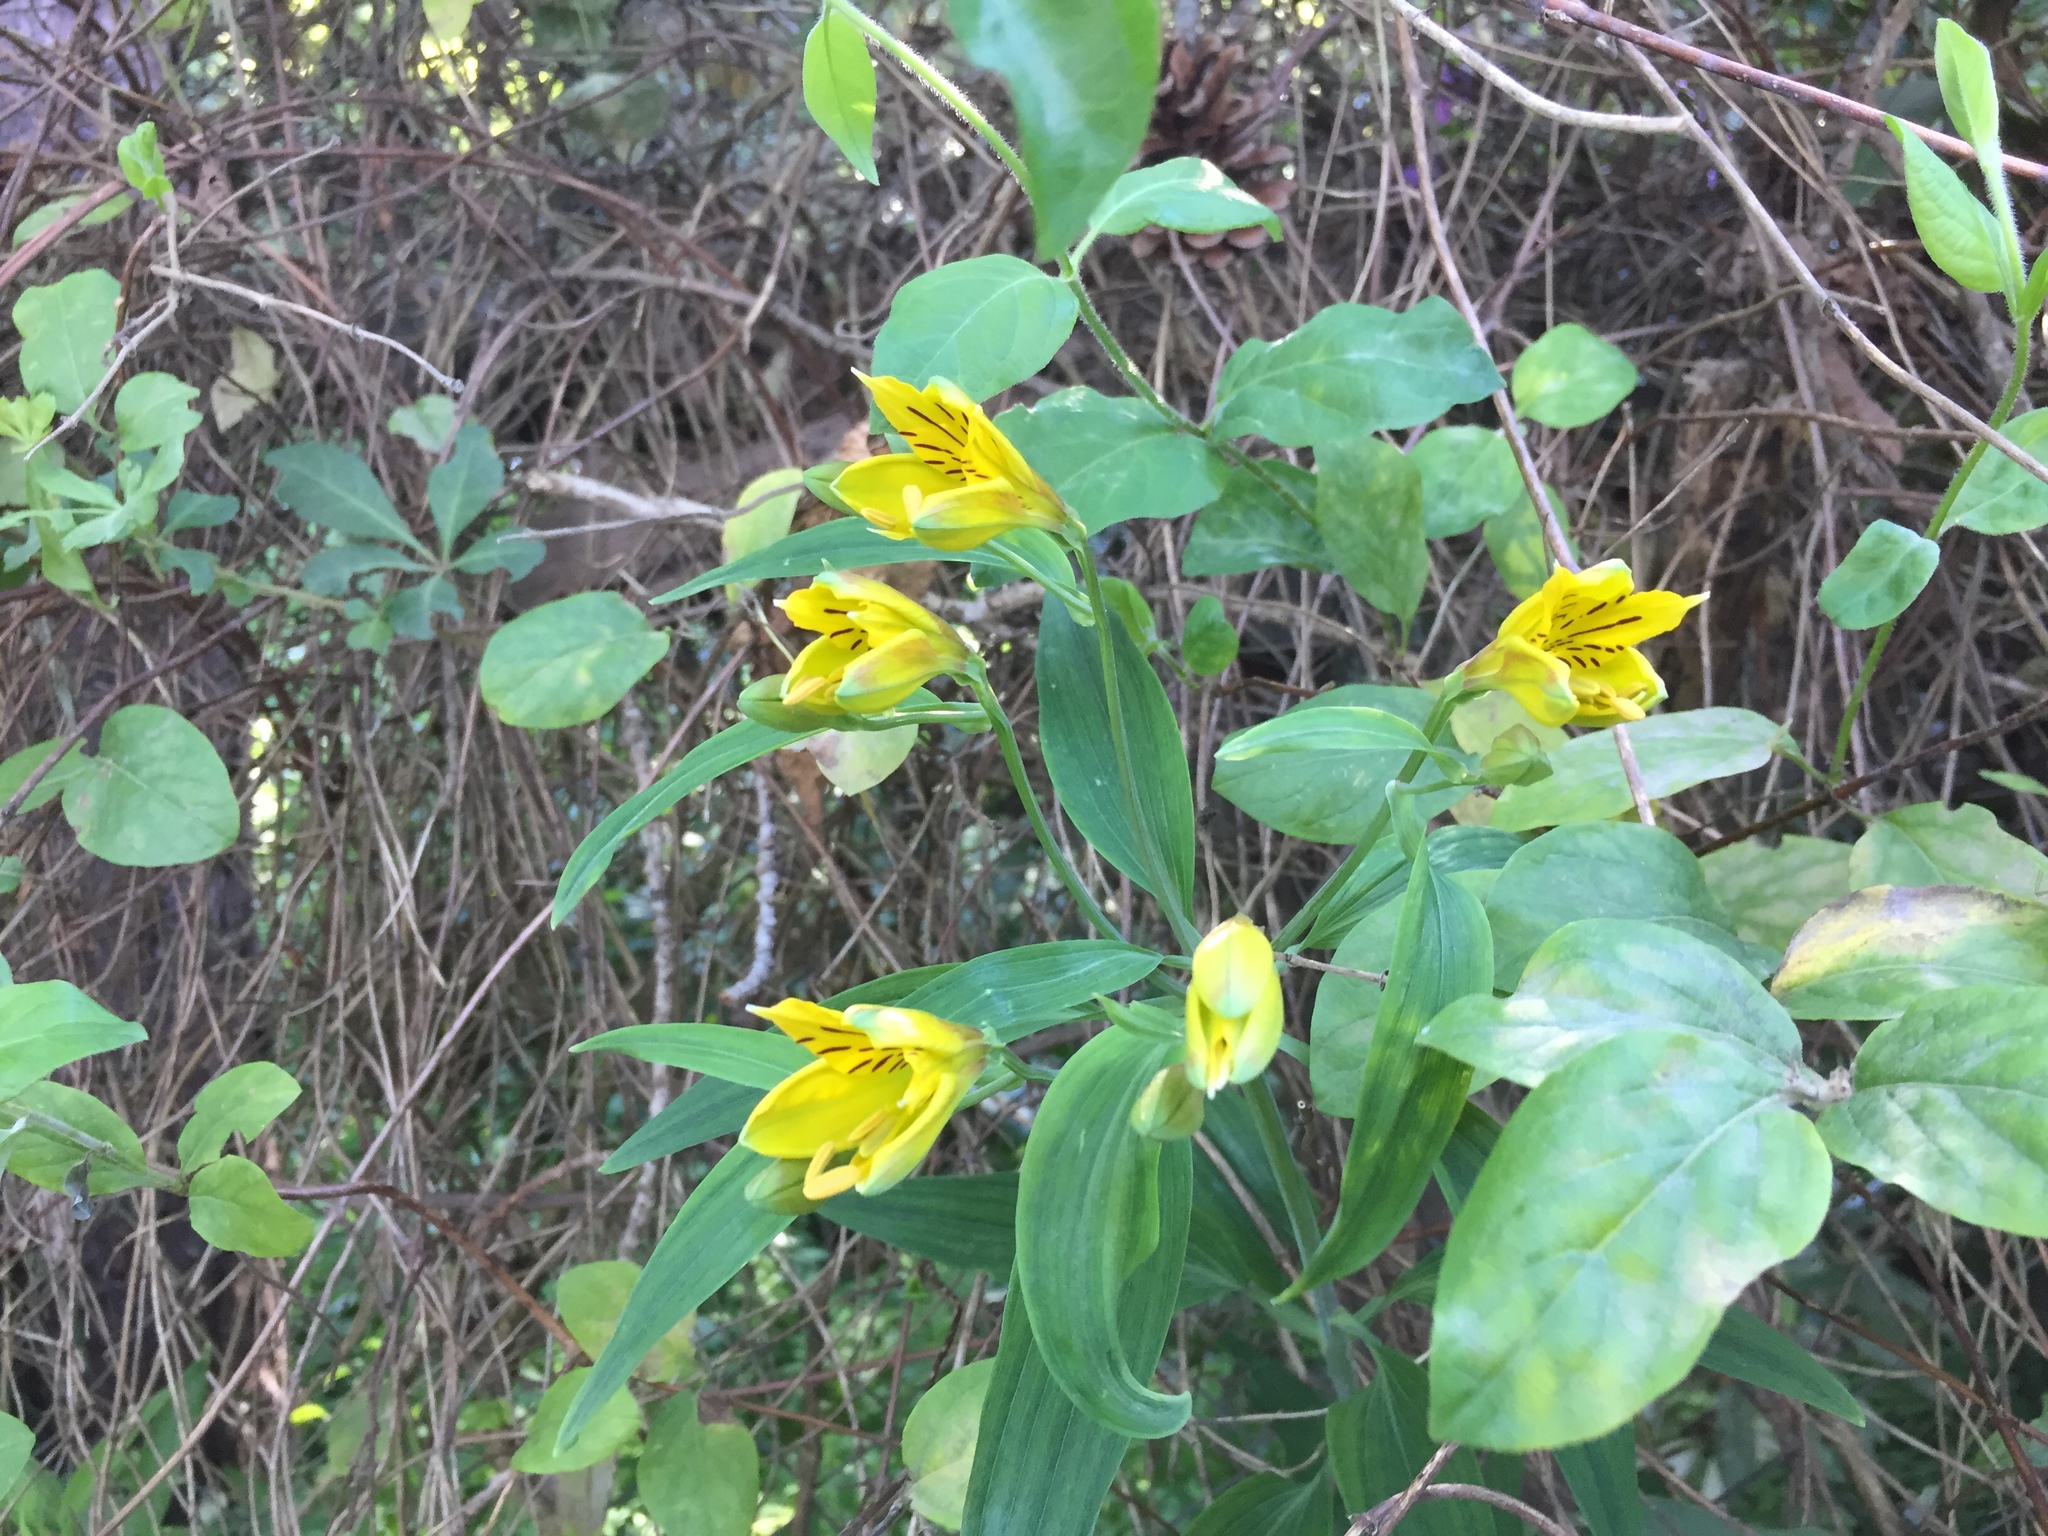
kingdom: Plantae
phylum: Tracheophyta
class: Liliopsida
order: Liliales
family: Alstroemeriaceae
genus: Alstroemeria
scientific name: Alstroemeria aurea
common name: Peruvian lily
